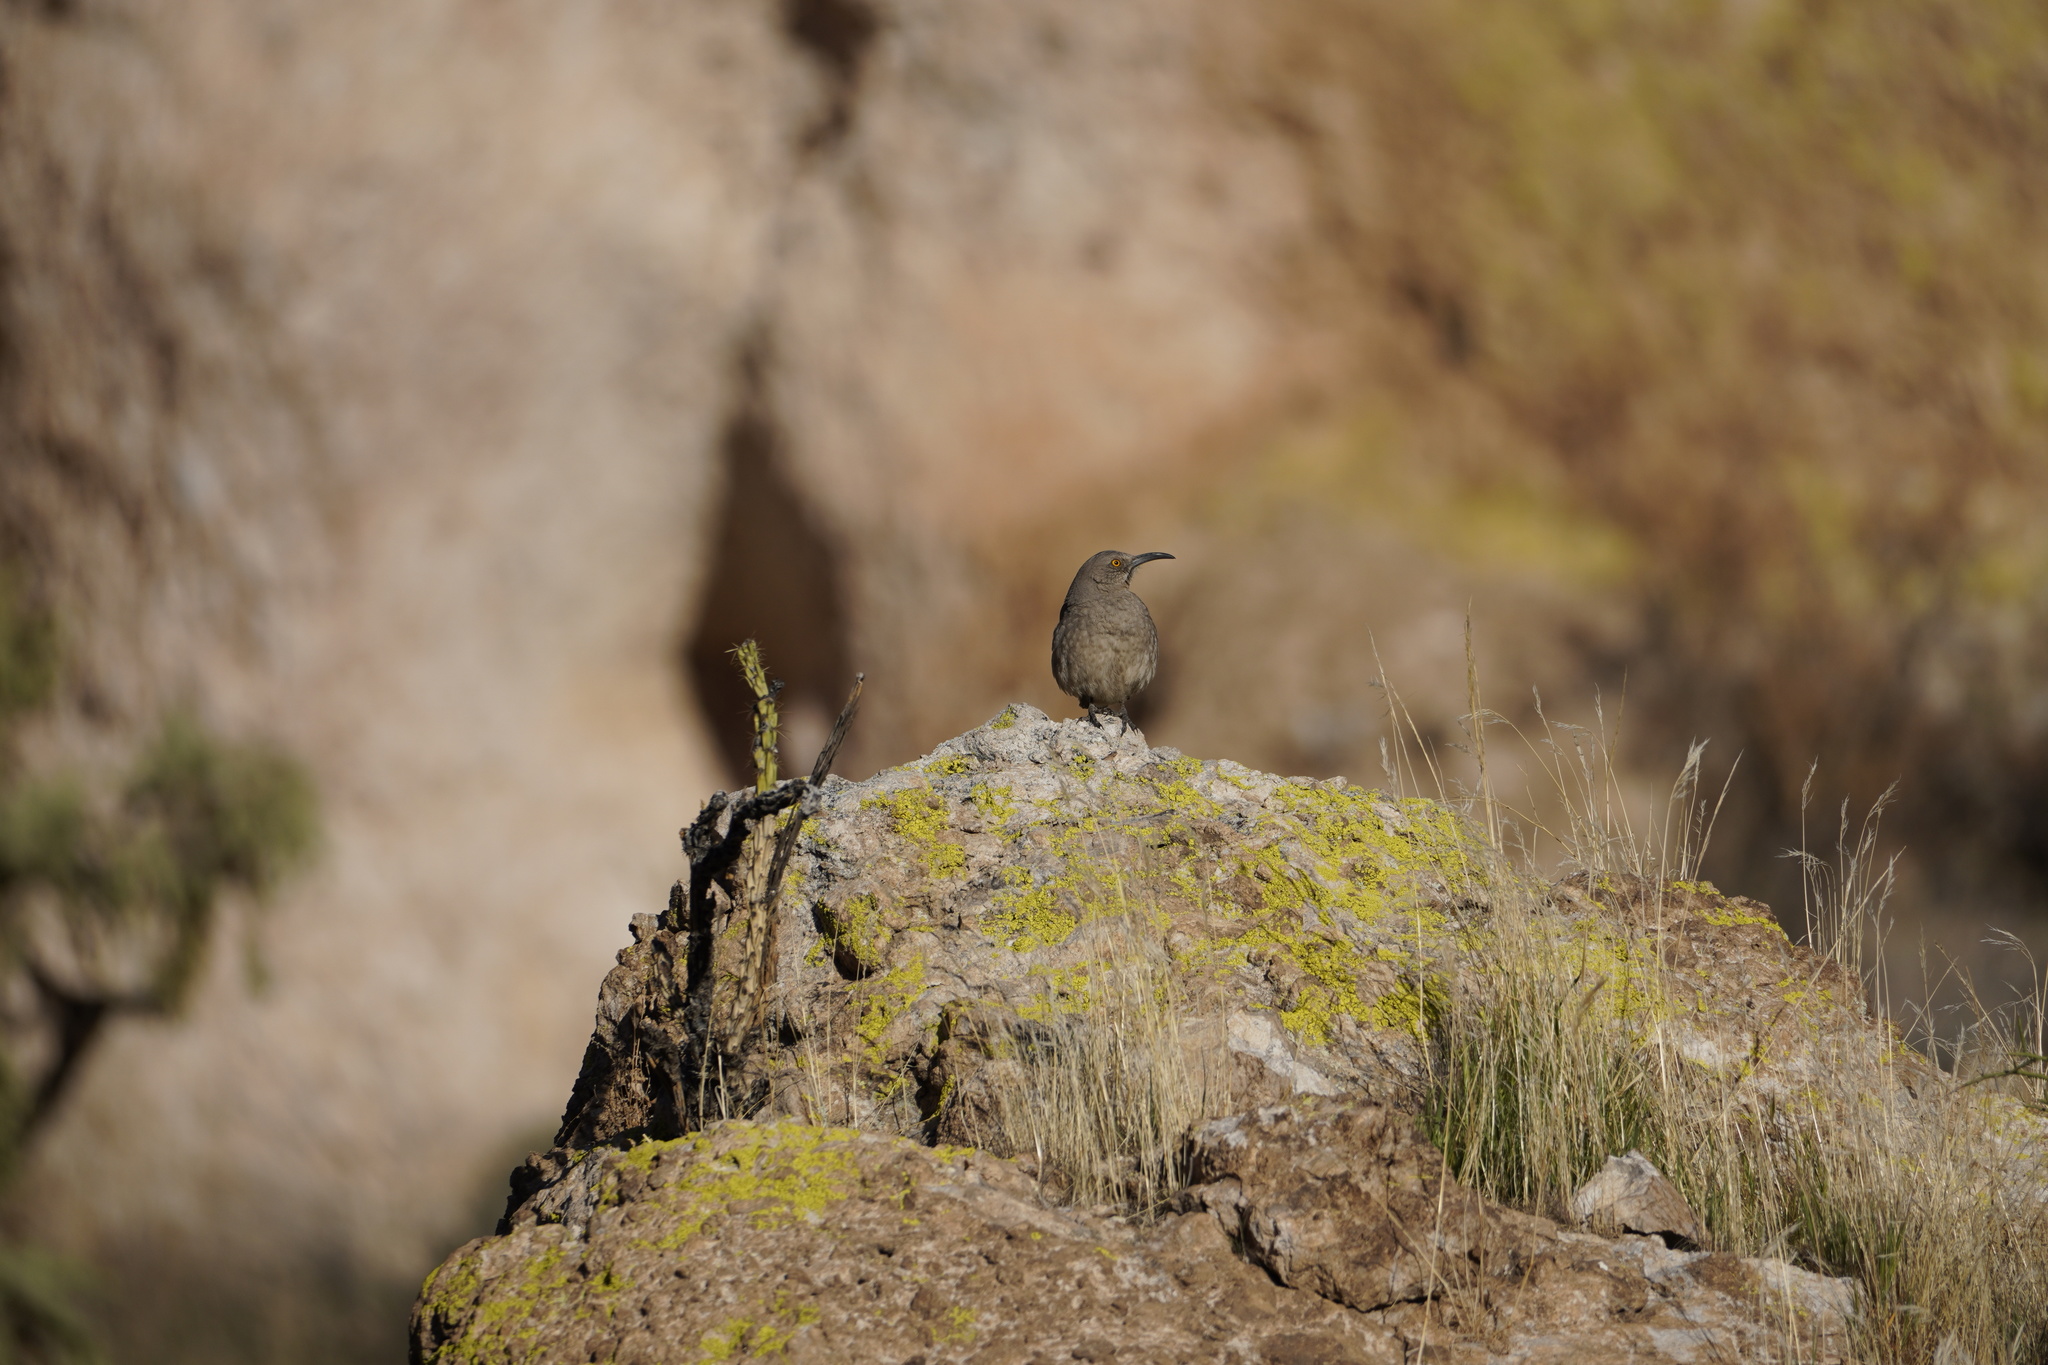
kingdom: Animalia
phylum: Chordata
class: Aves
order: Passeriformes
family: Mimidae
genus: Toxostoma
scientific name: Toxostoma curvirostre
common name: Curve-billed thrasher
